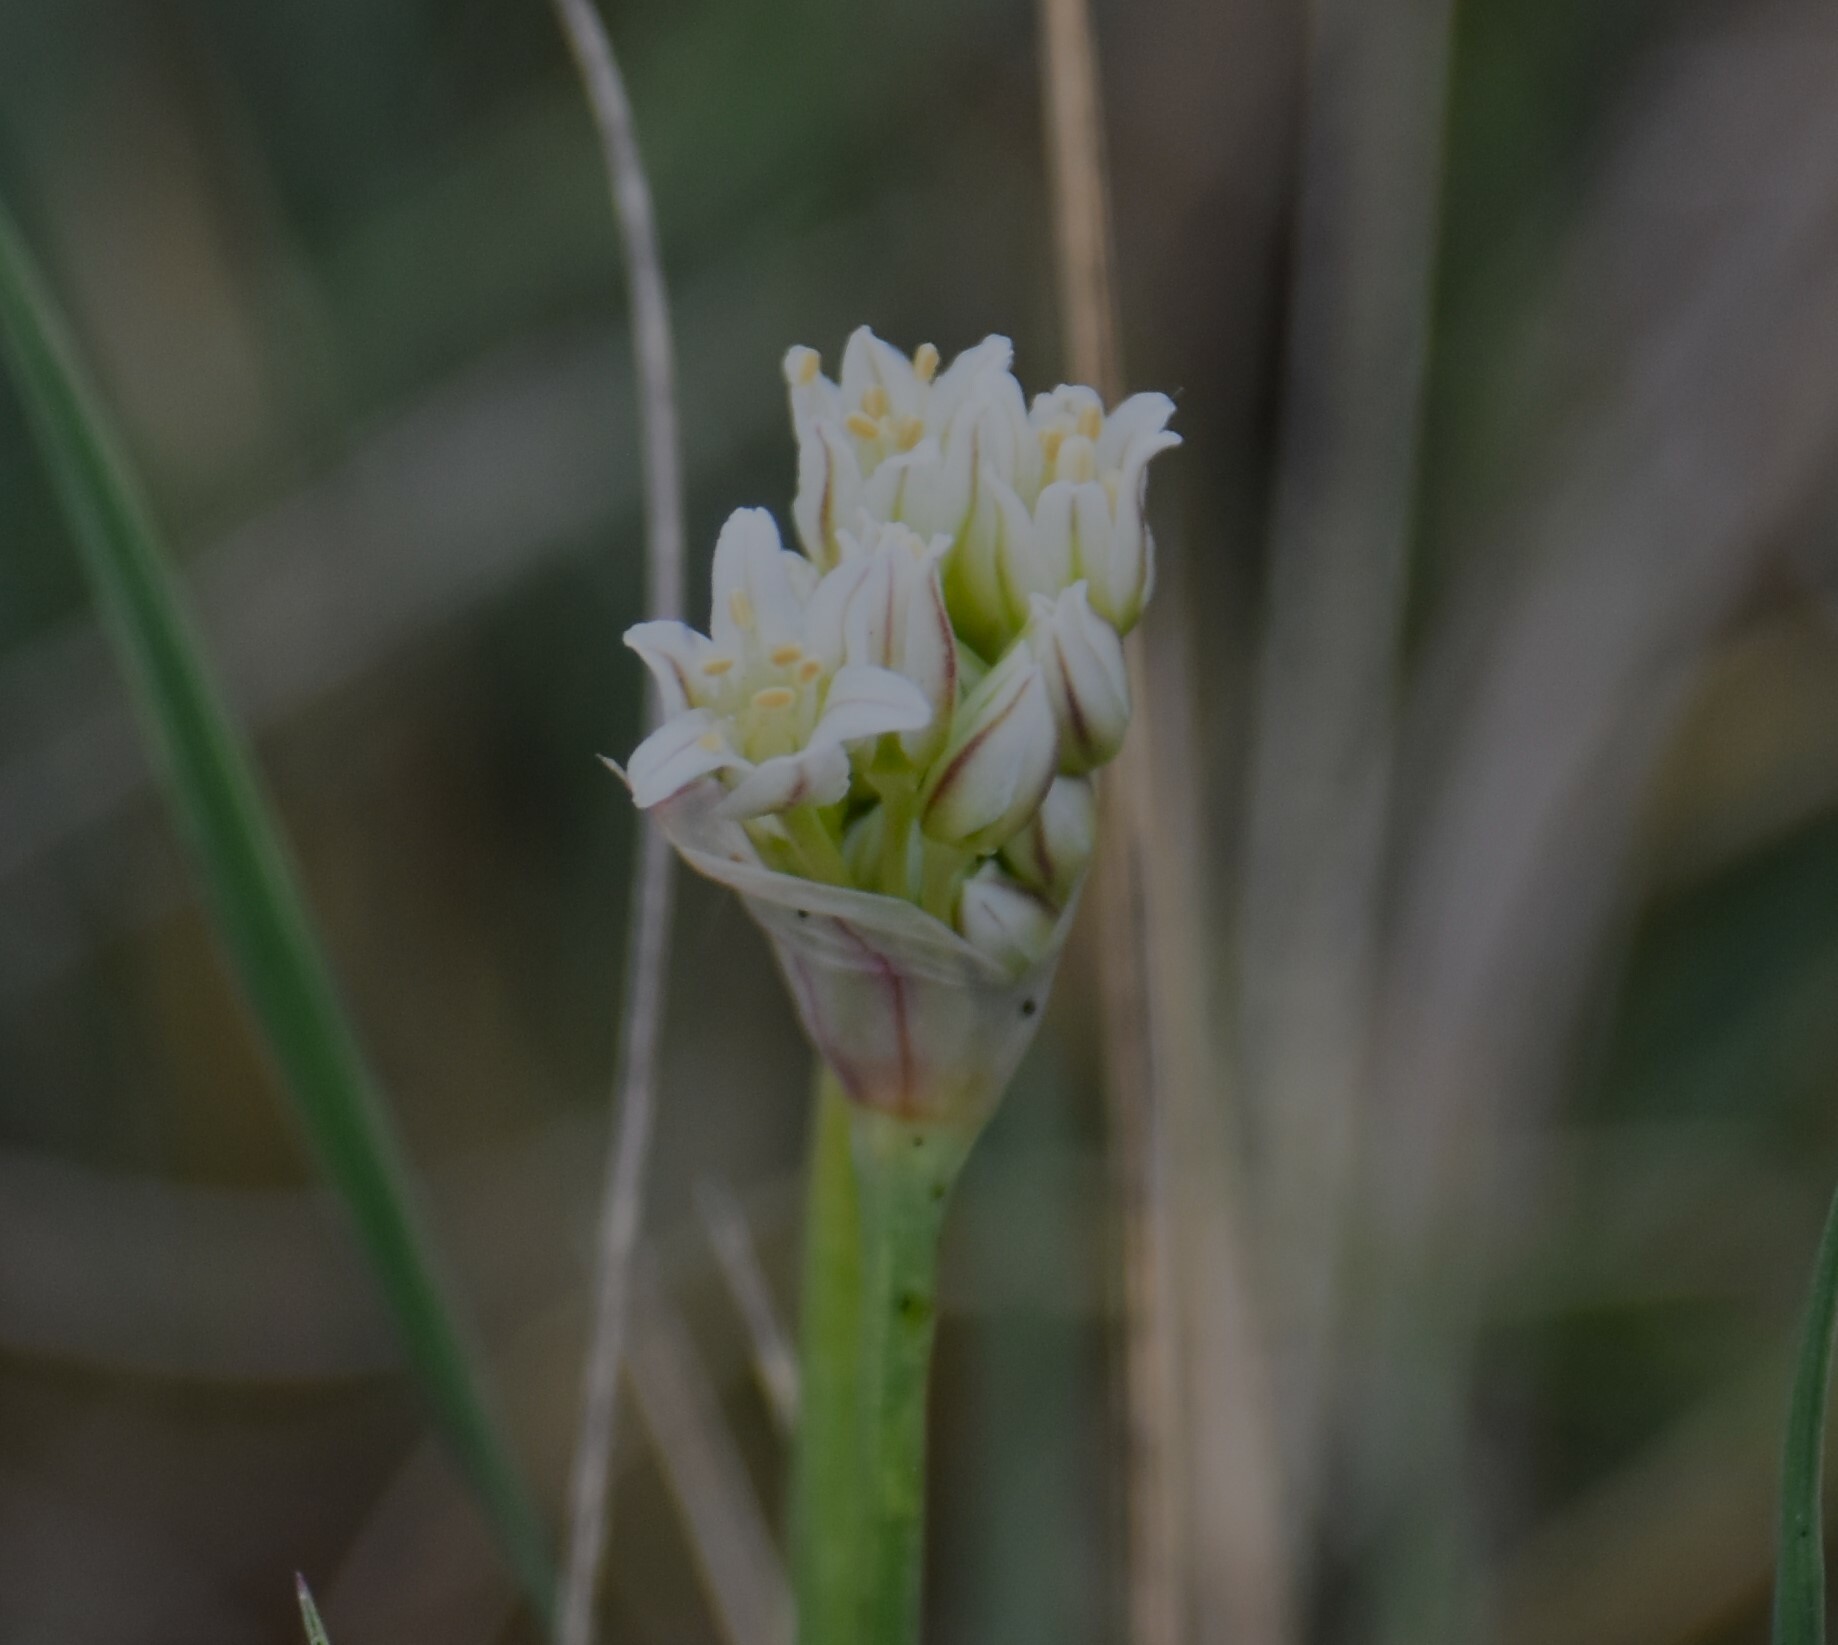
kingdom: Plantae
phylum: Tracheophyta
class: Liliopsida
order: Asparagales
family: Amaryllidaceae
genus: Allium
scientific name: Allium textile
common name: Prairie onion
